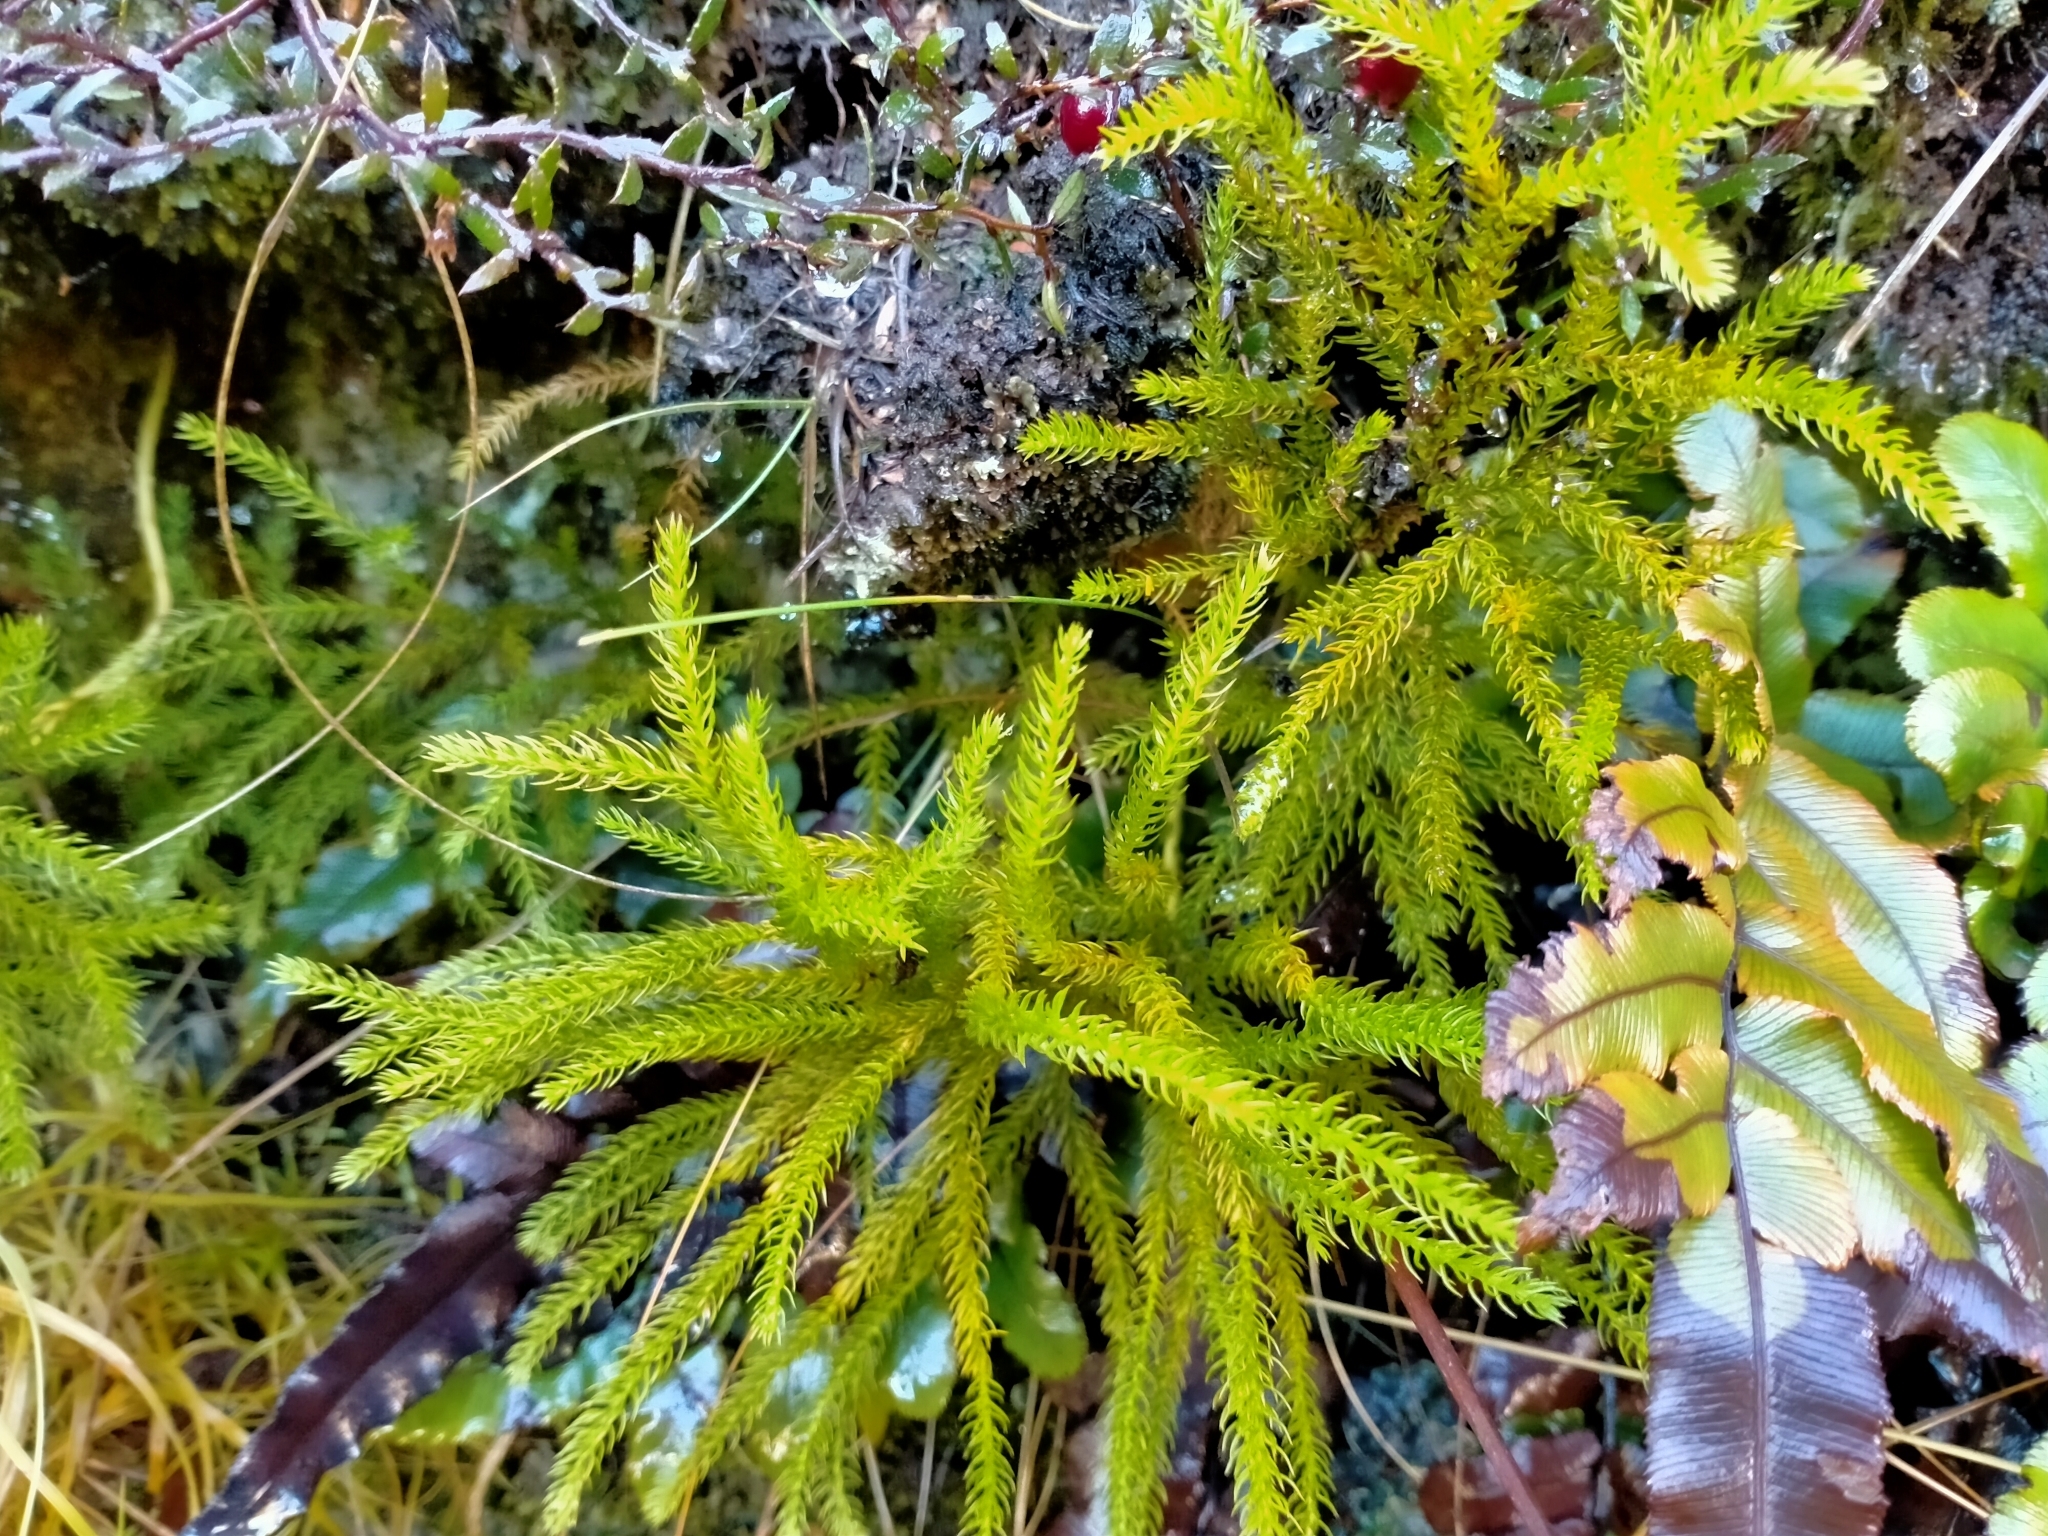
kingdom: Plantae
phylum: Tracheophyta
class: Lycopodiopsida
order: Lycopodiales
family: Lycopodiaceae
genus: Austrolycopodium
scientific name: Austrolycopodium fastigiatum
